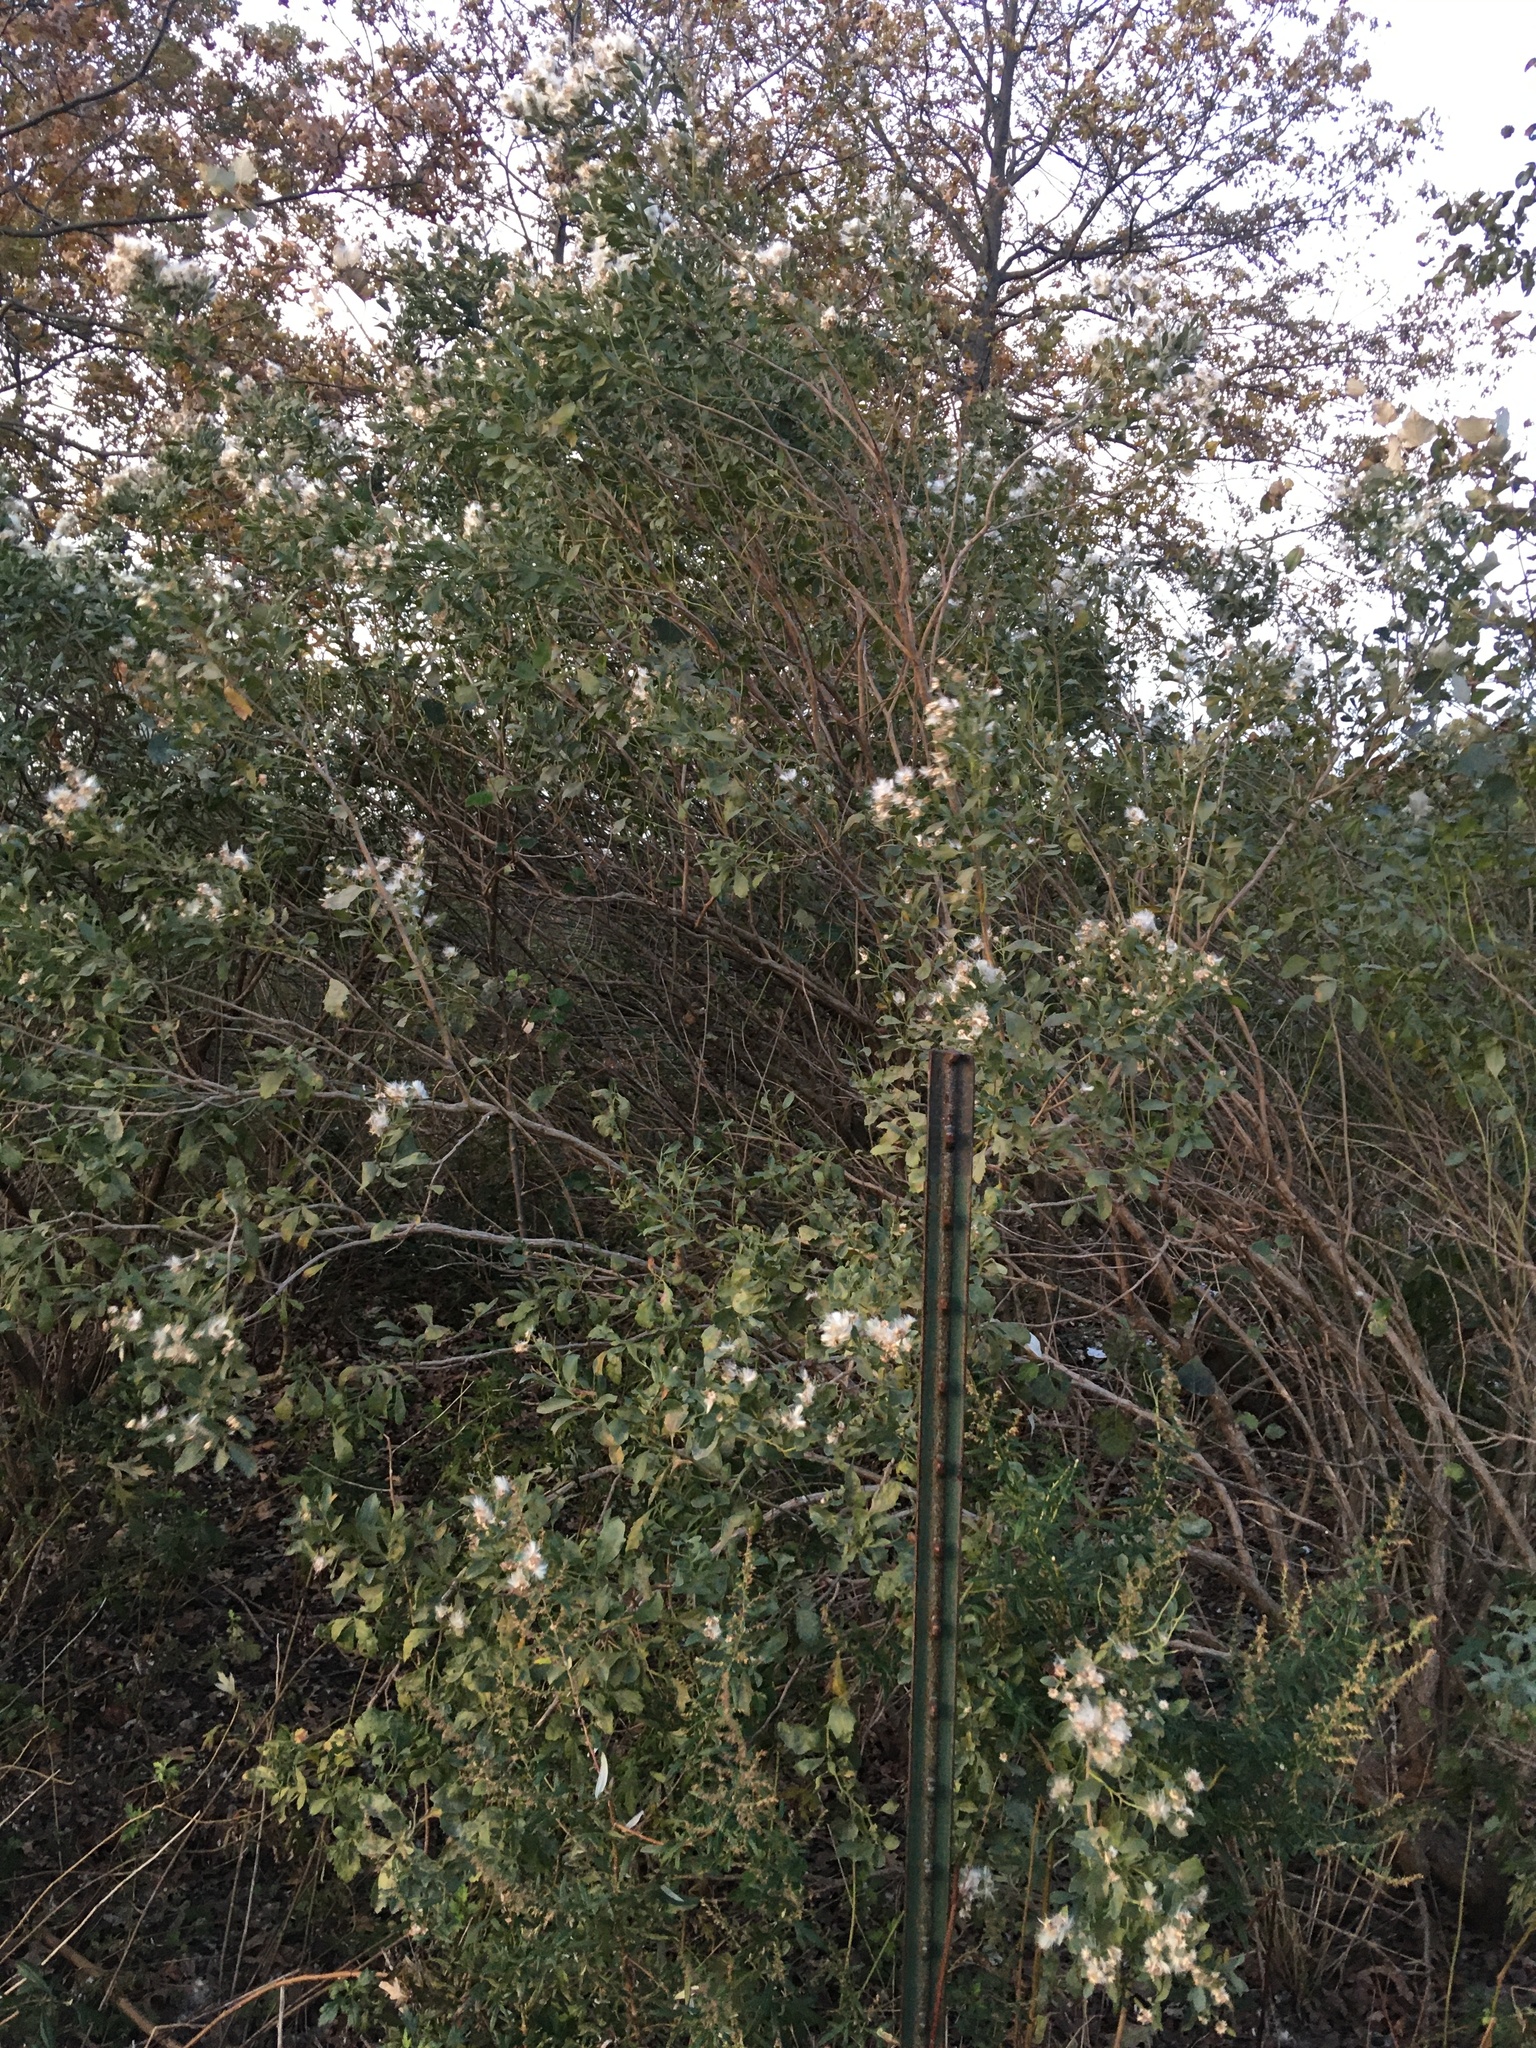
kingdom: Plantae
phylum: Tracheophyta
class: Magnoliopsida
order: Asterales
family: Asteraceae
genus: Baccharis
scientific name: Baccharis halimifolia
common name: Eastern baccharis
